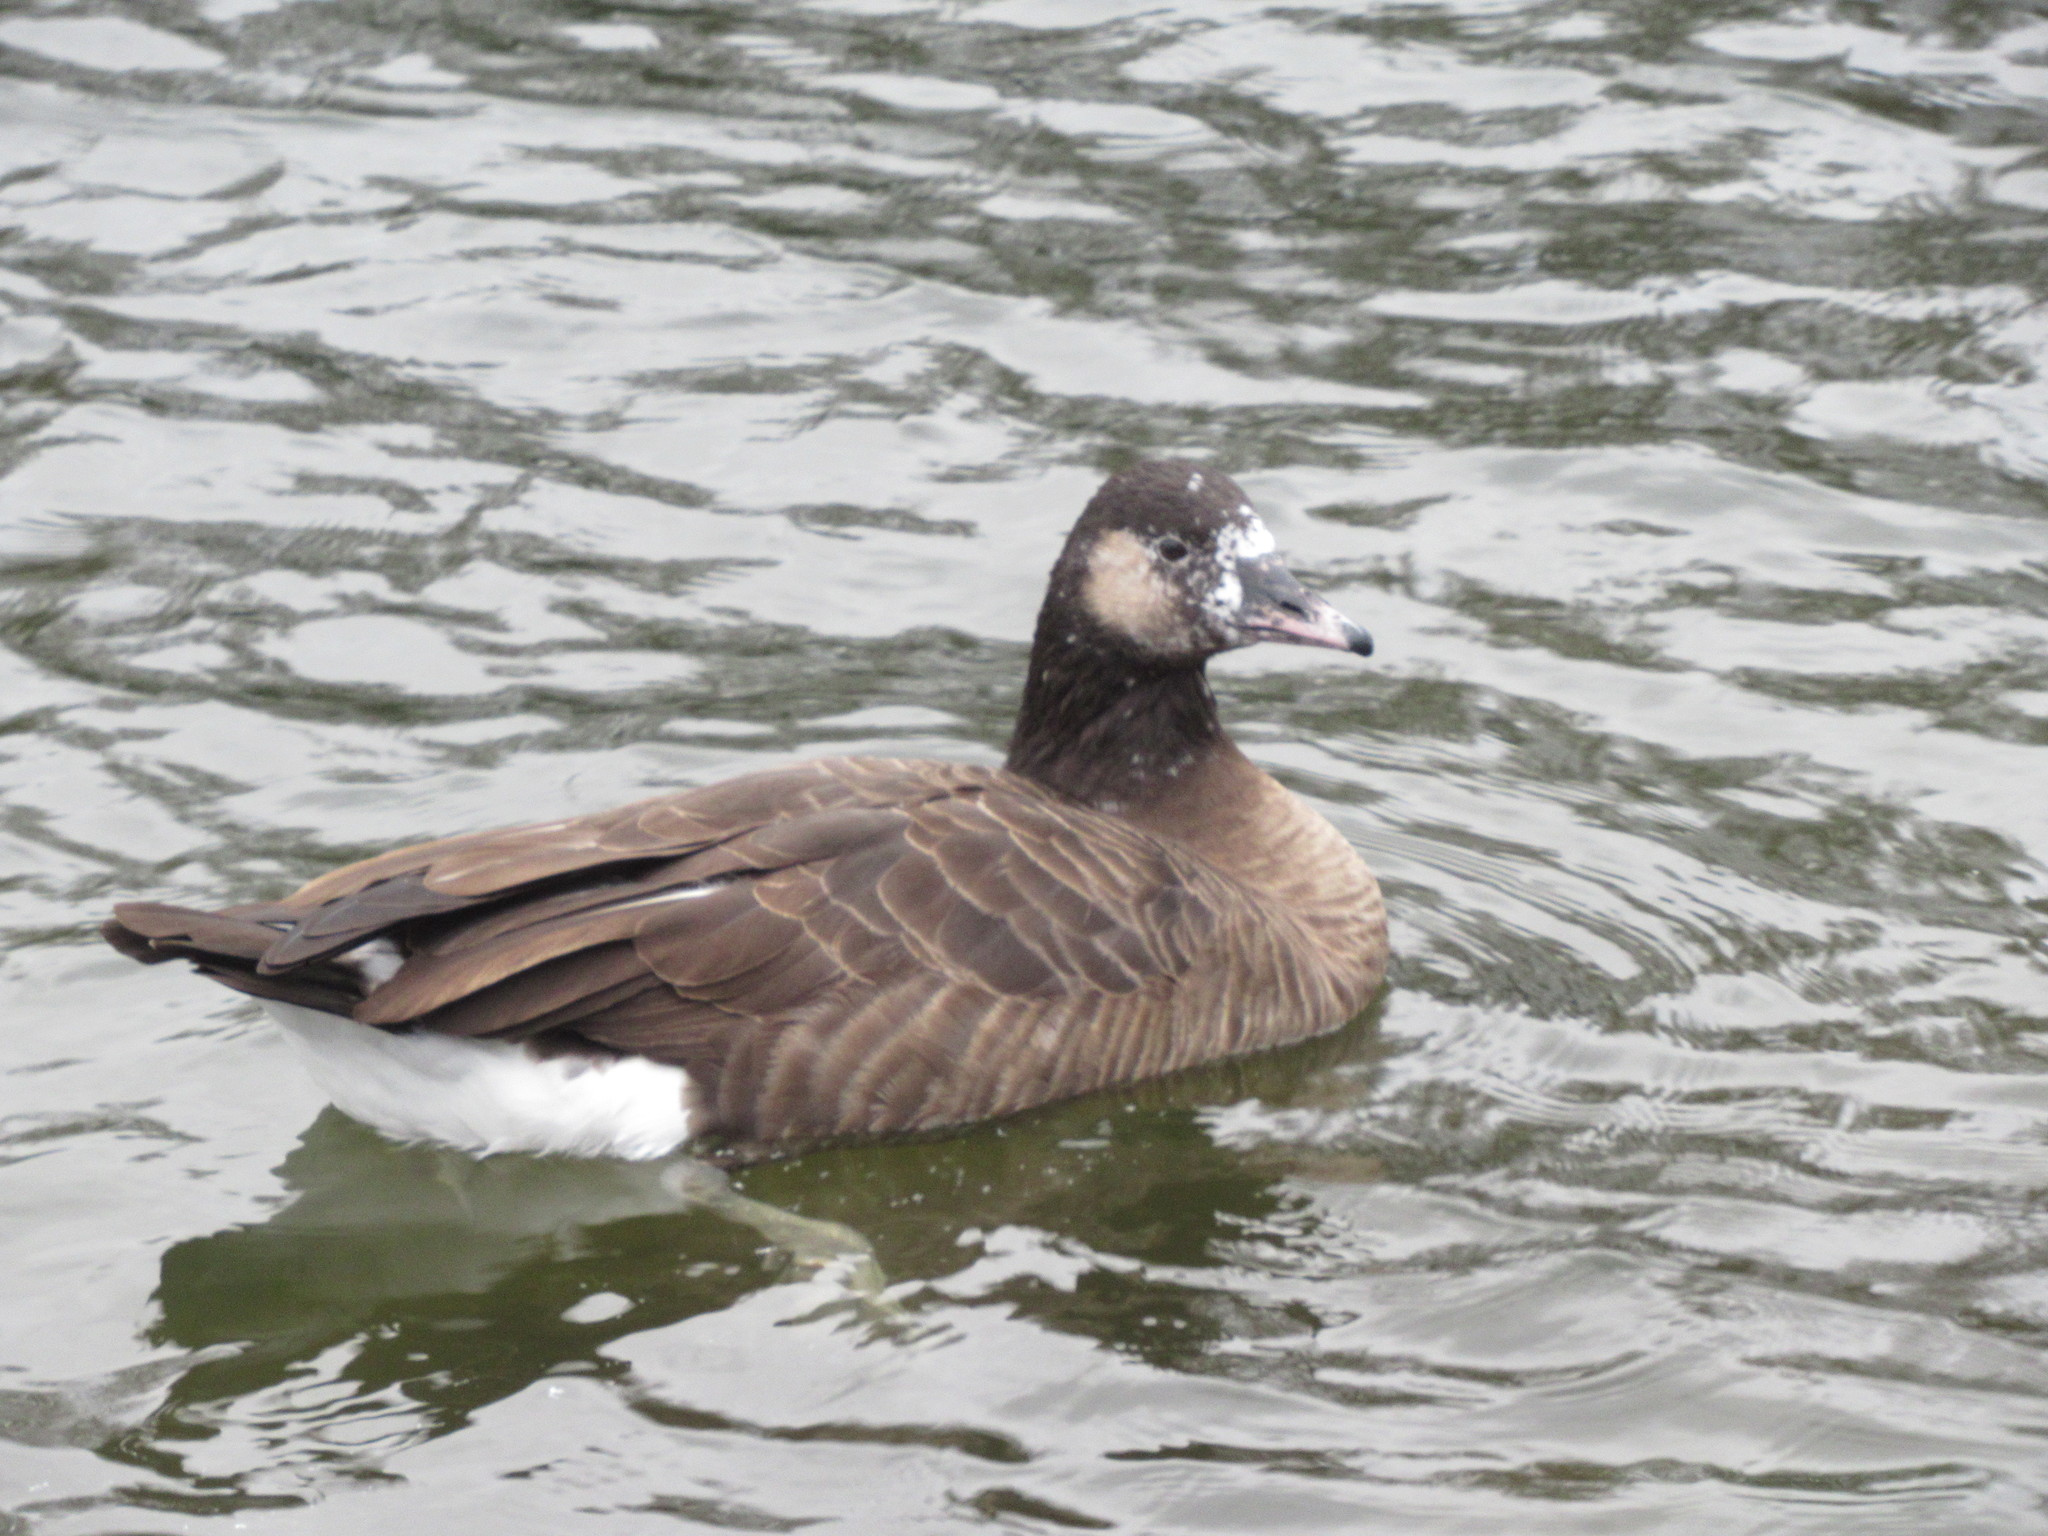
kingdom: Animalia
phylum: Chordata
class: Aves
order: Anseriformes
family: Anatidae
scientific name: Anatidae
